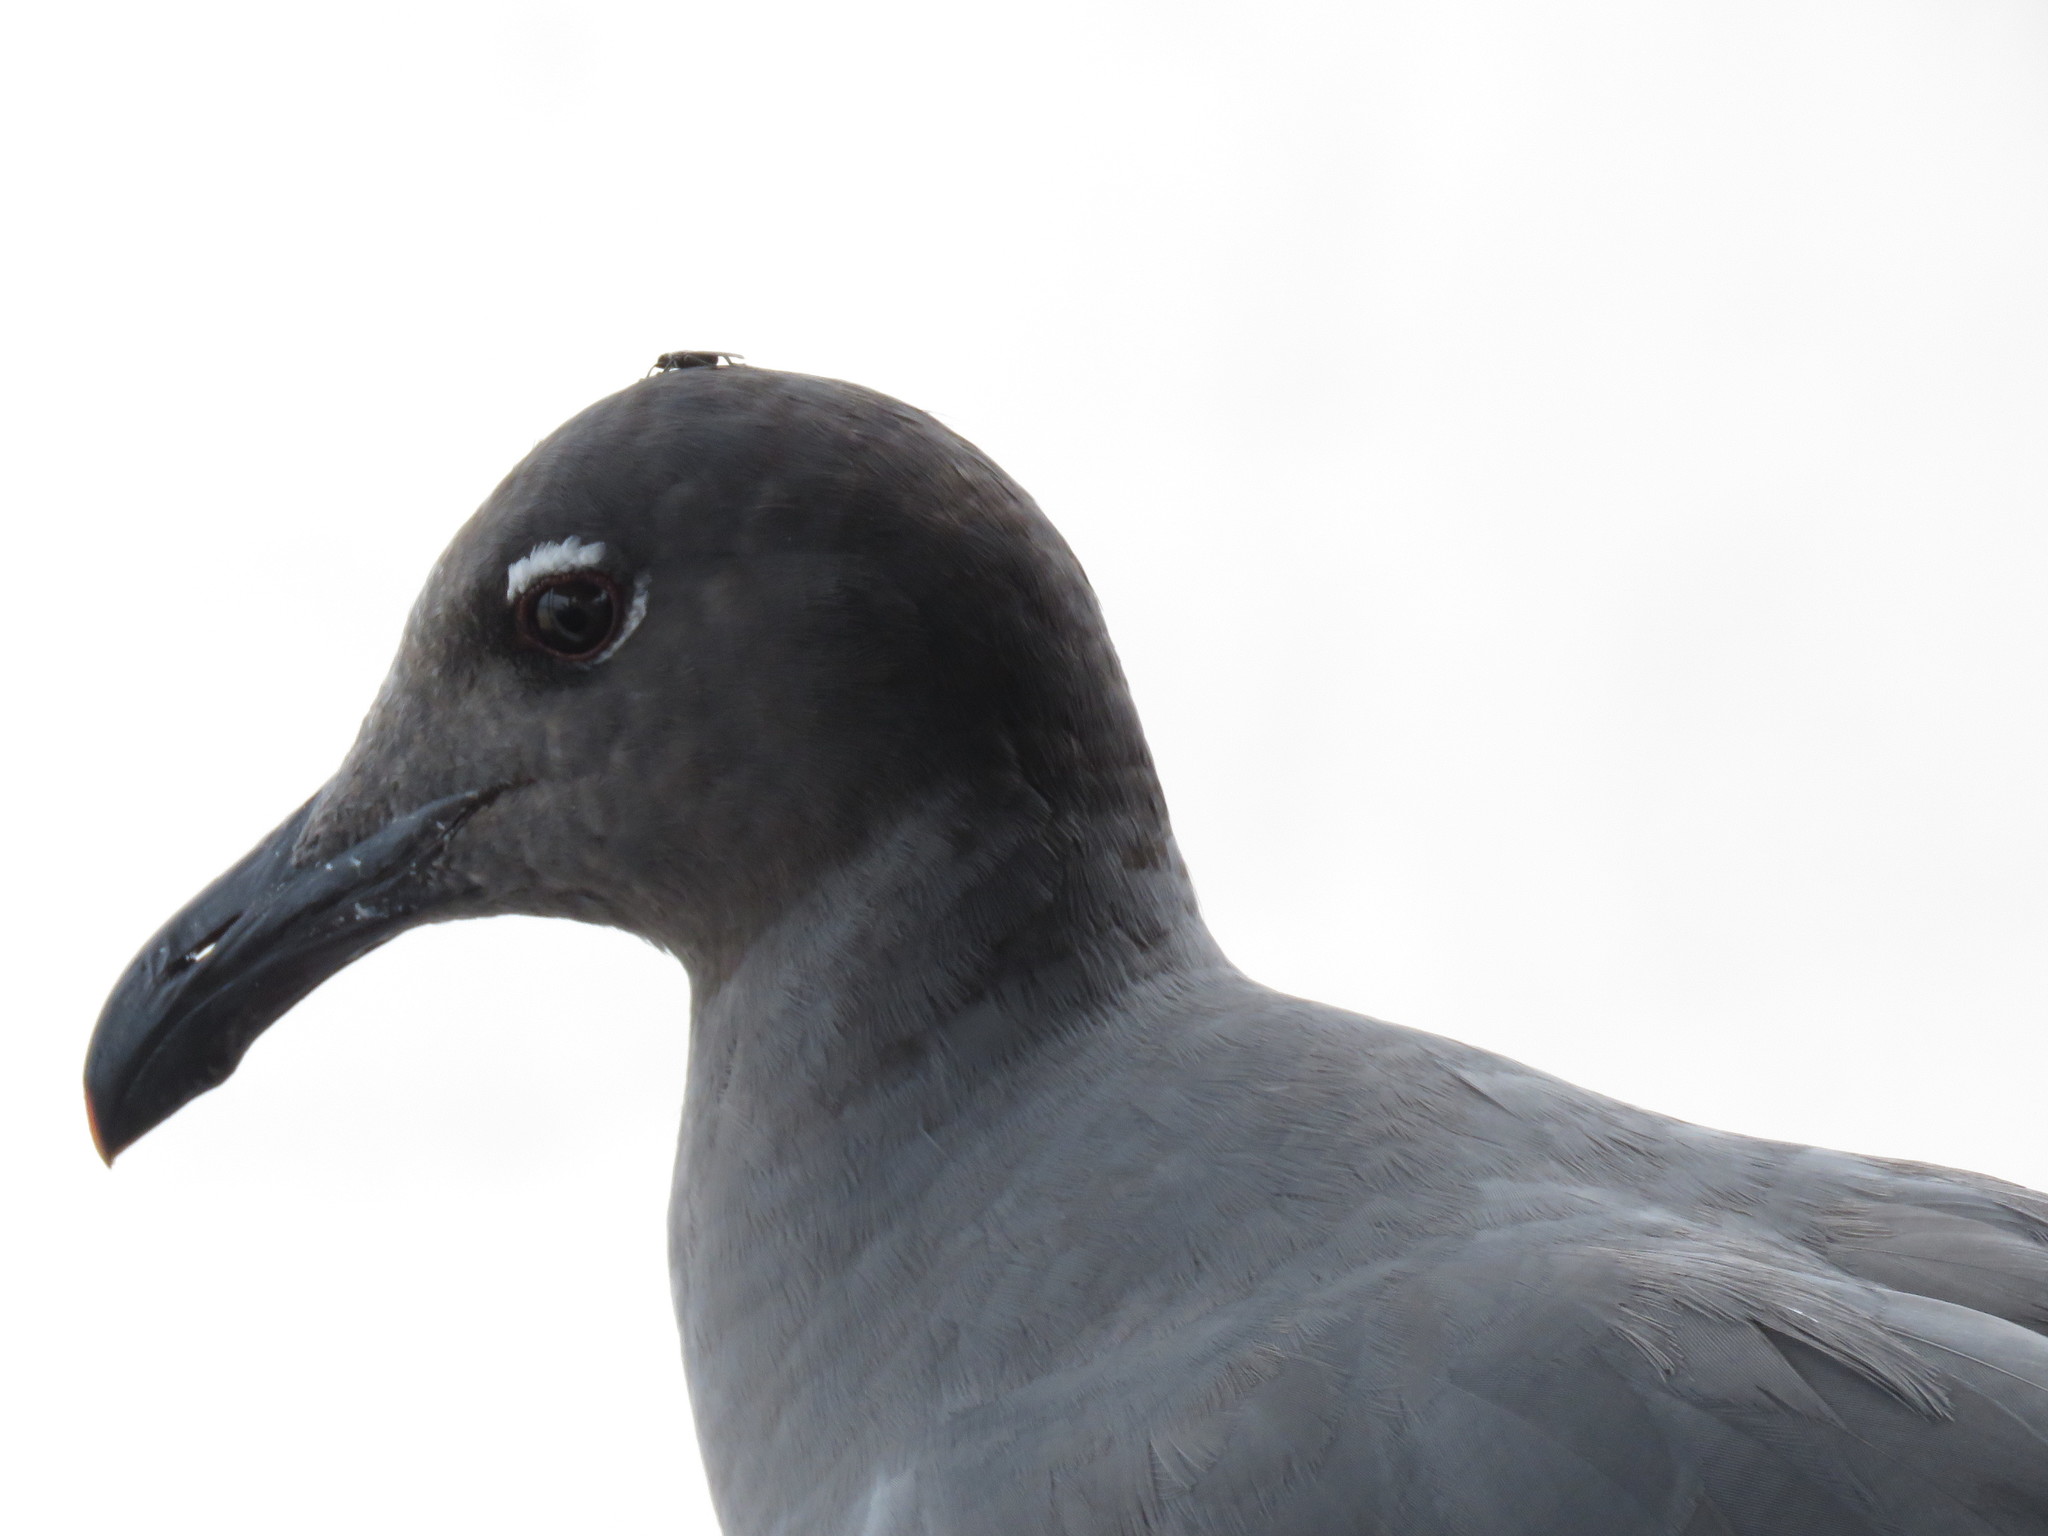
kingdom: Animalia
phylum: Chordata
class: Aves
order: Charadriiformes
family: Laridae
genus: Leucophaeus
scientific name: Leucophaeus fuliginosus
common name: Lava gull
